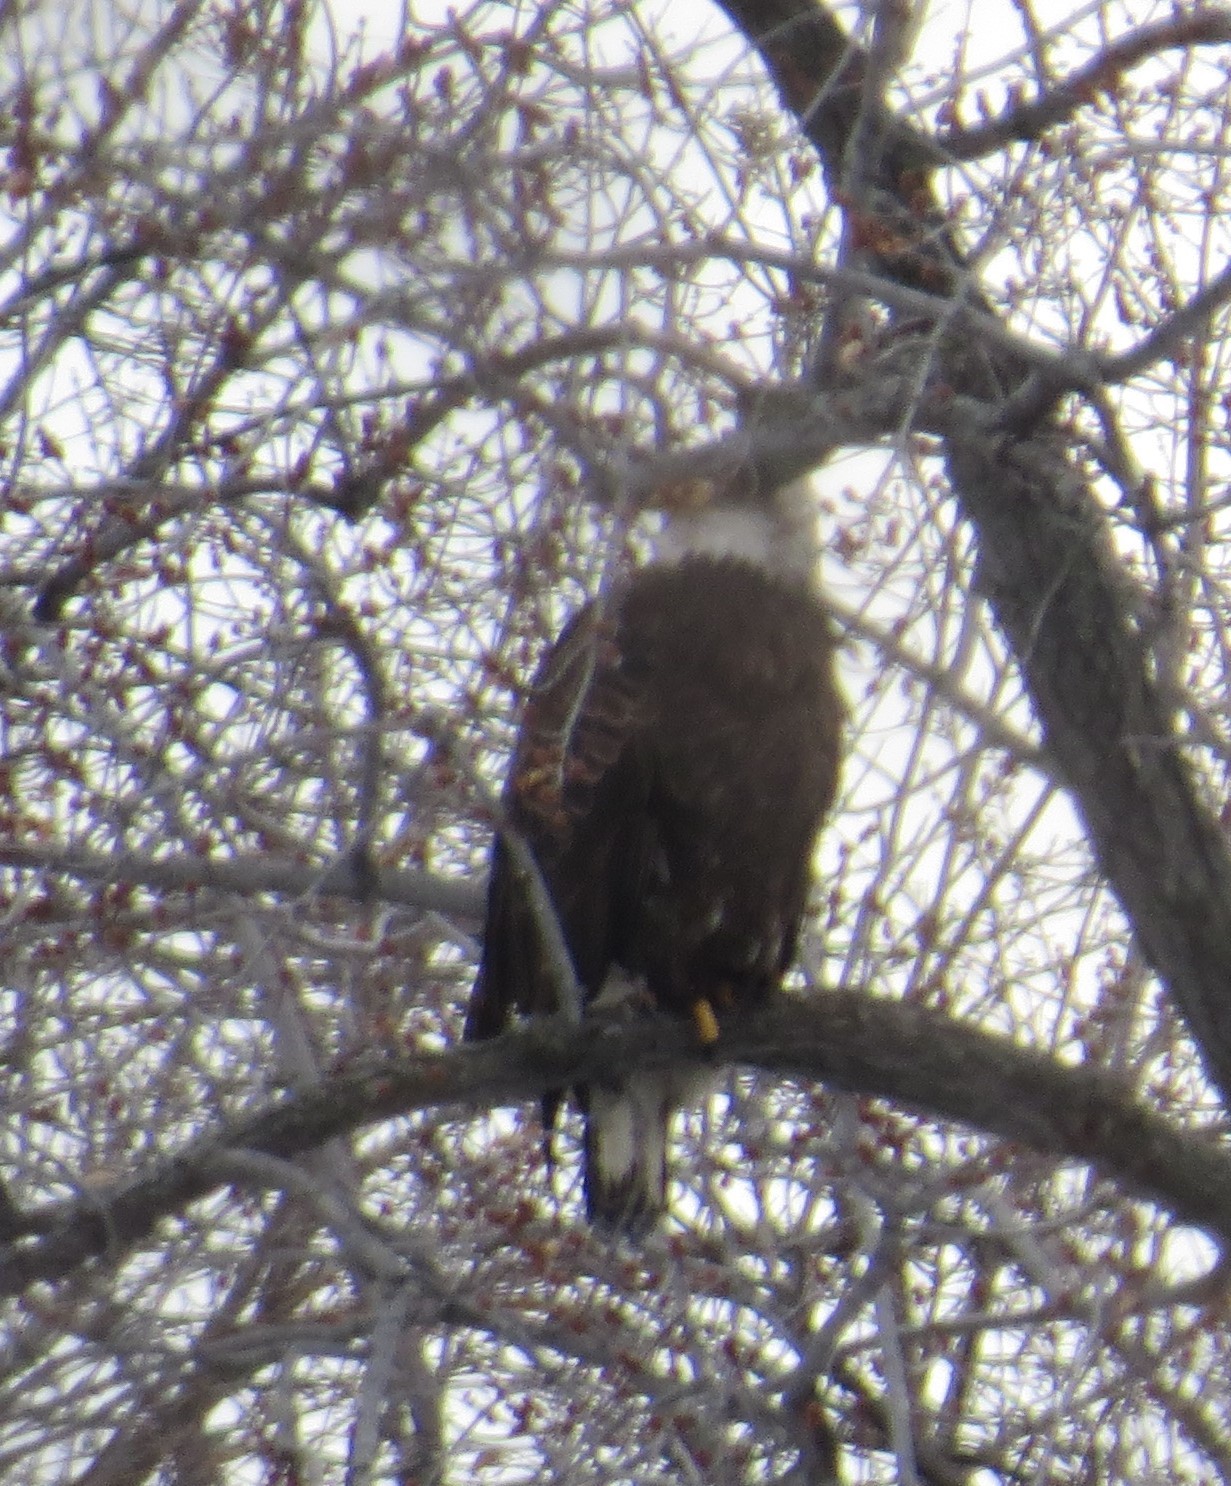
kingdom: Animalia
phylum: Chordata
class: Aves
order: Accipitriformes
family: Accipitridae
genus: Haliaeetus
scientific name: Haliaeetus leucocephalus
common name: Bald eagle
